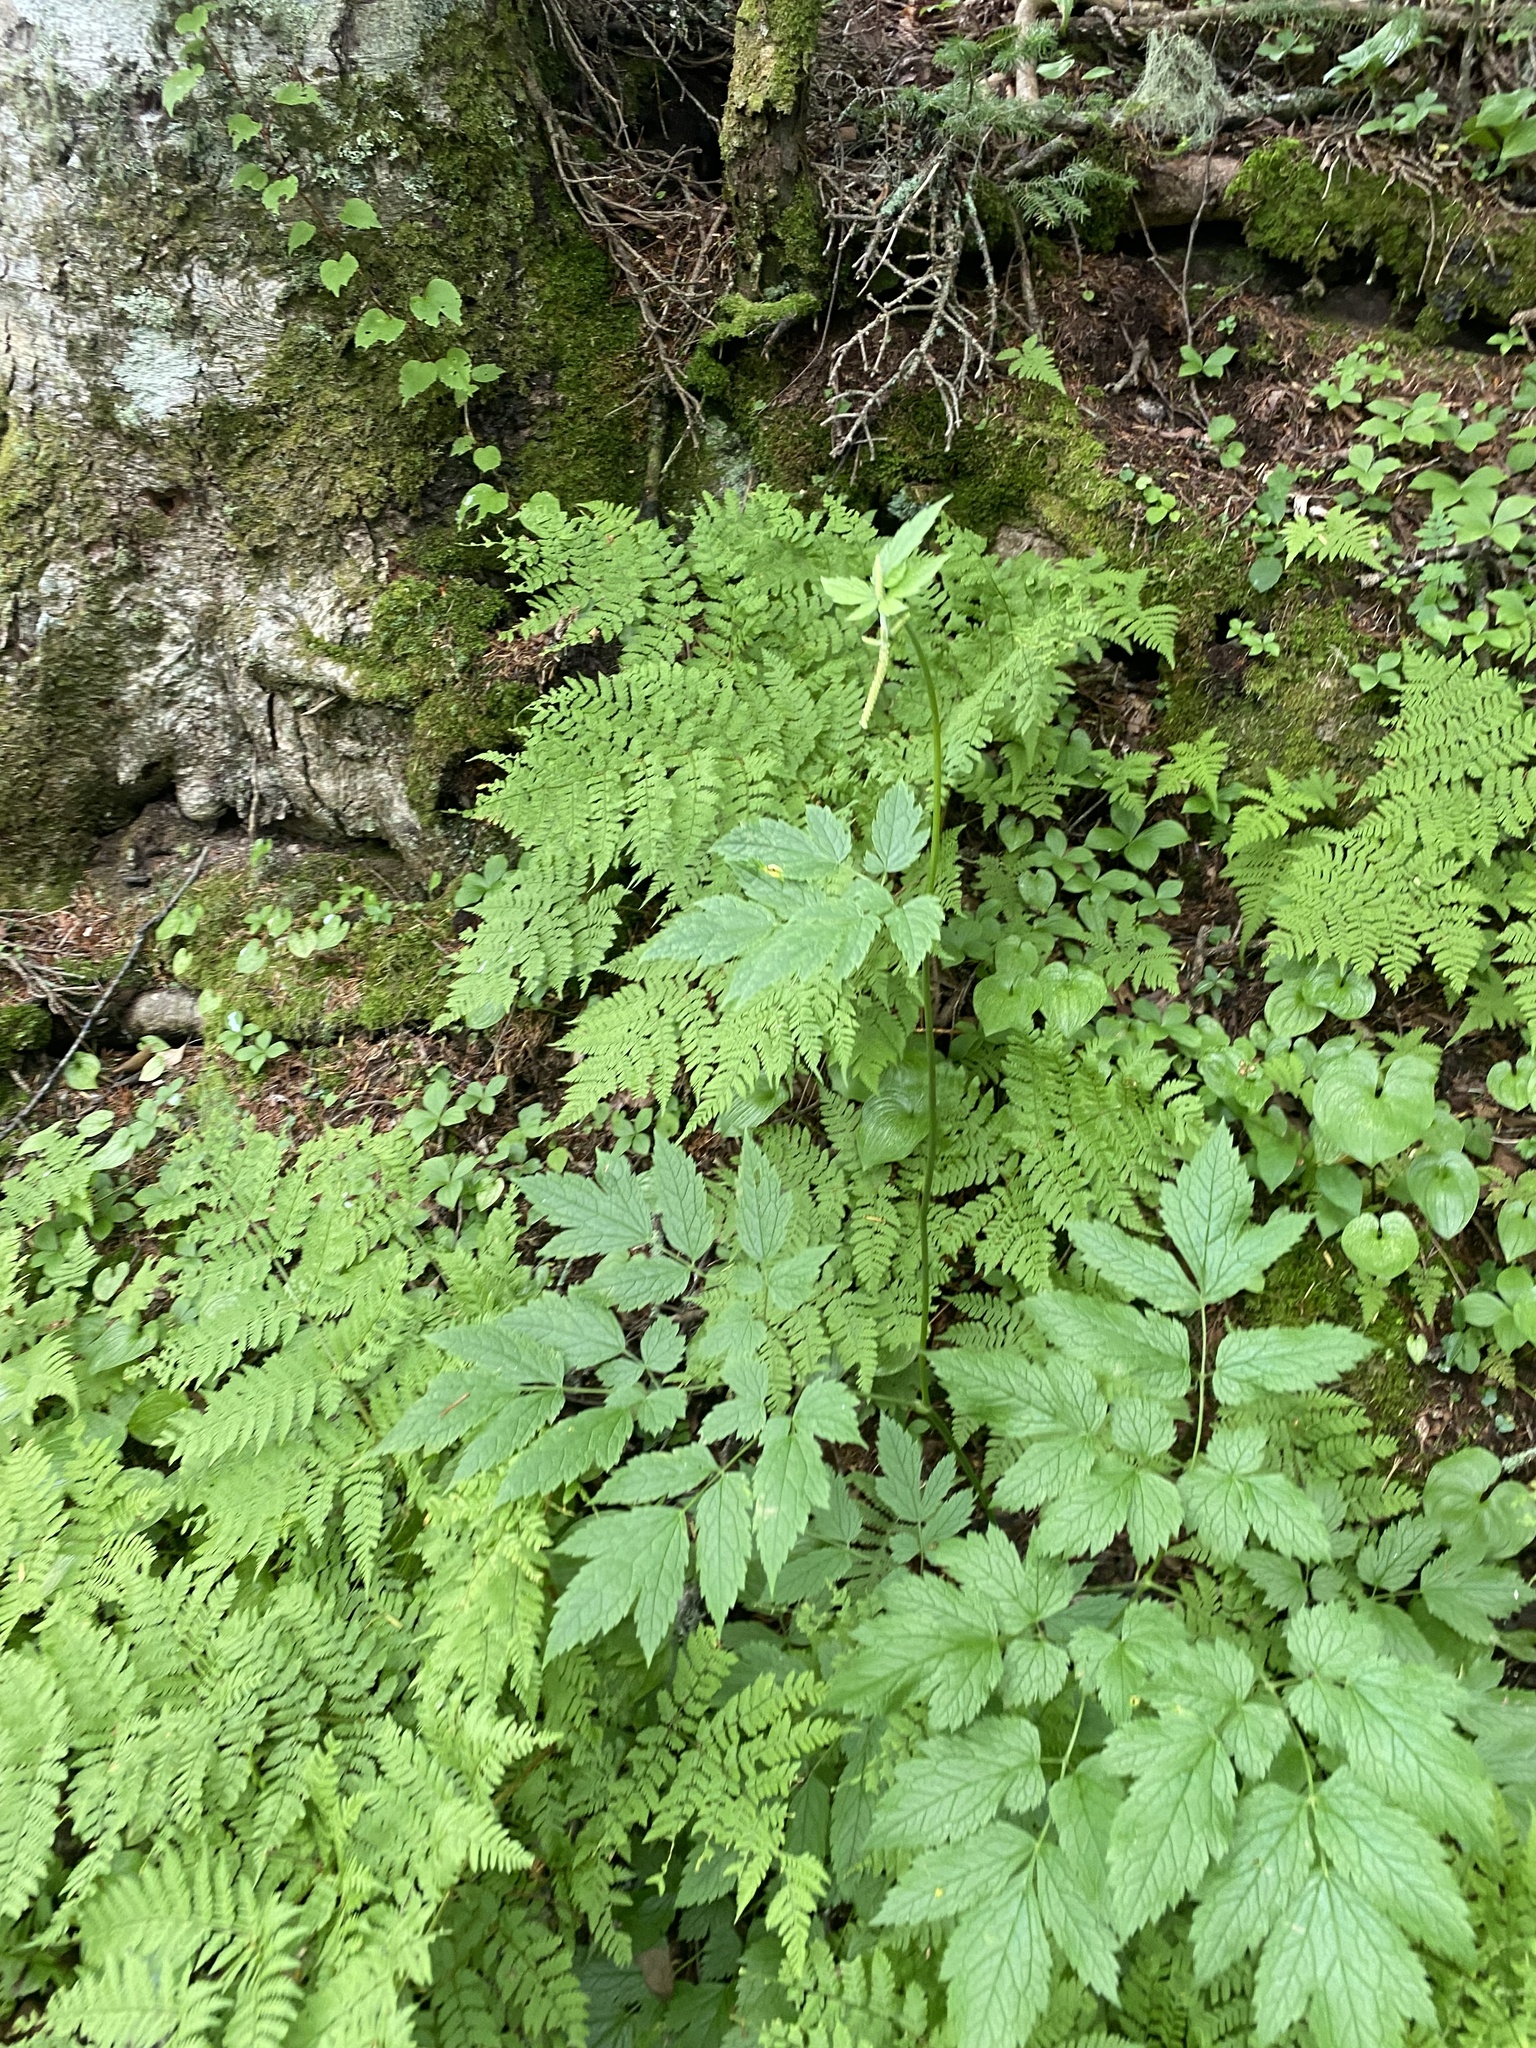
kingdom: Plantae
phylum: Tracheophyta
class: Magnoliopsida
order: Ranunculales
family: Ranunculaceae
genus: Actaea
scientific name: Actaea simplex
